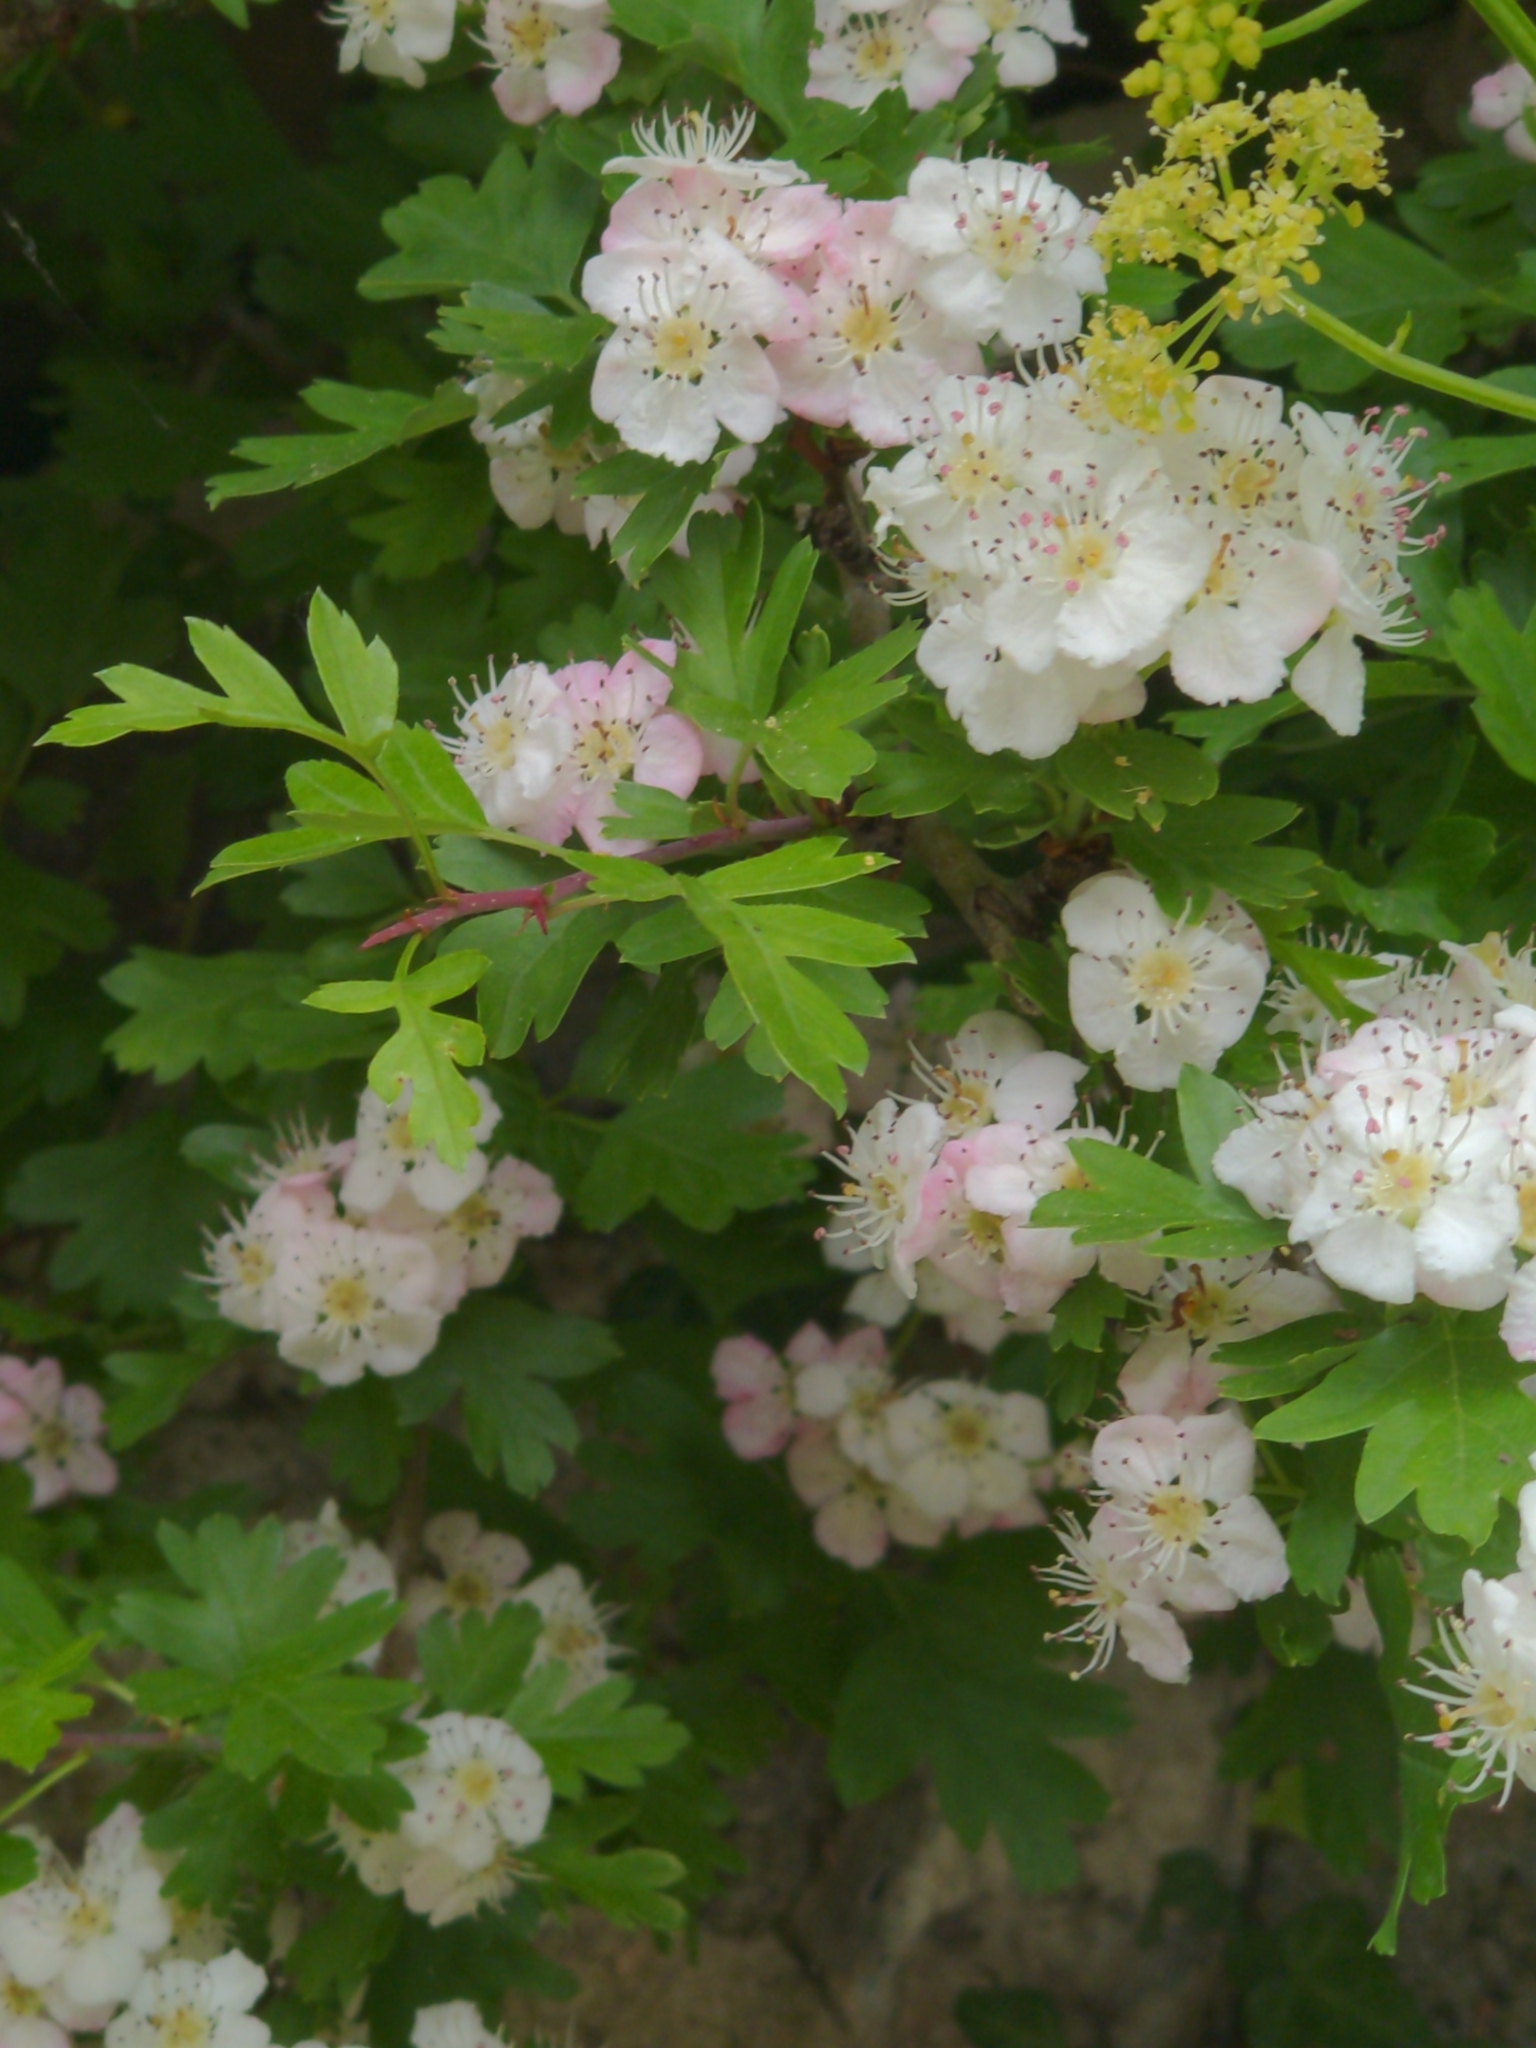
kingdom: Plantae
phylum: Tracheophyta
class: Magnoliopsida
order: Rosales
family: Rosaceae
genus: Crataegus
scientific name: Crataegus monogyna
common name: Hawthorn
